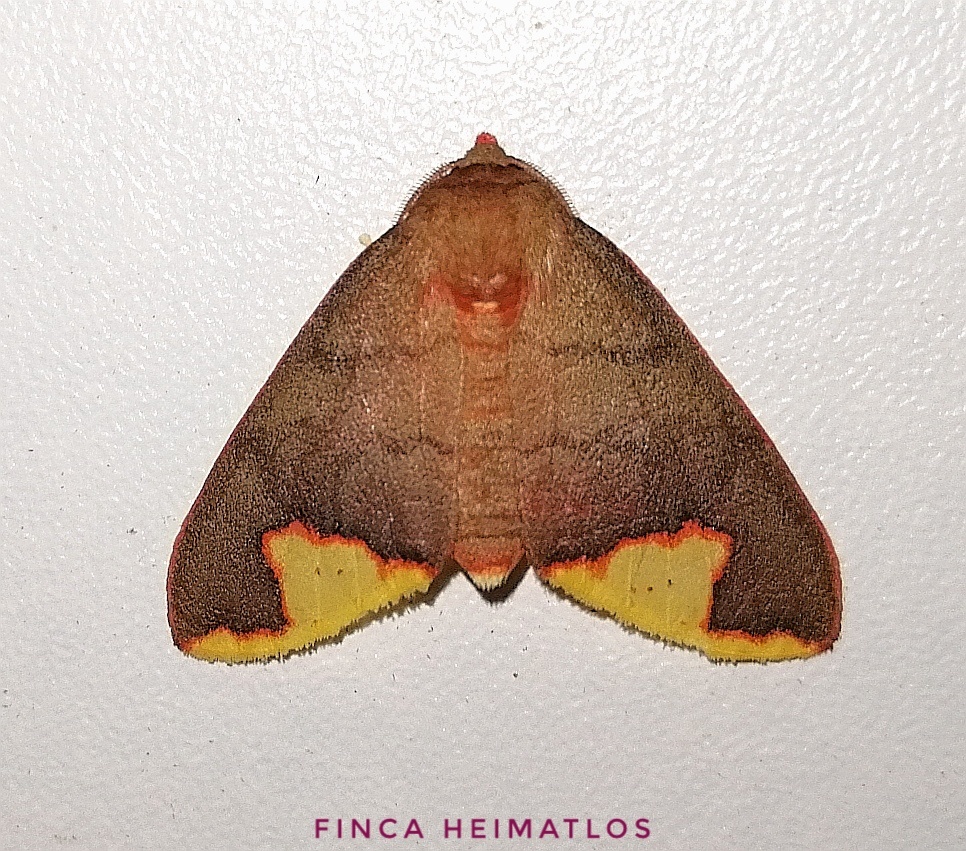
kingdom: Animalia
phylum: Arthropoda
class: Insecta
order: Lepidoptera
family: Erebidae
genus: Pseudepimolis
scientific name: Pseudepimolis incisa
